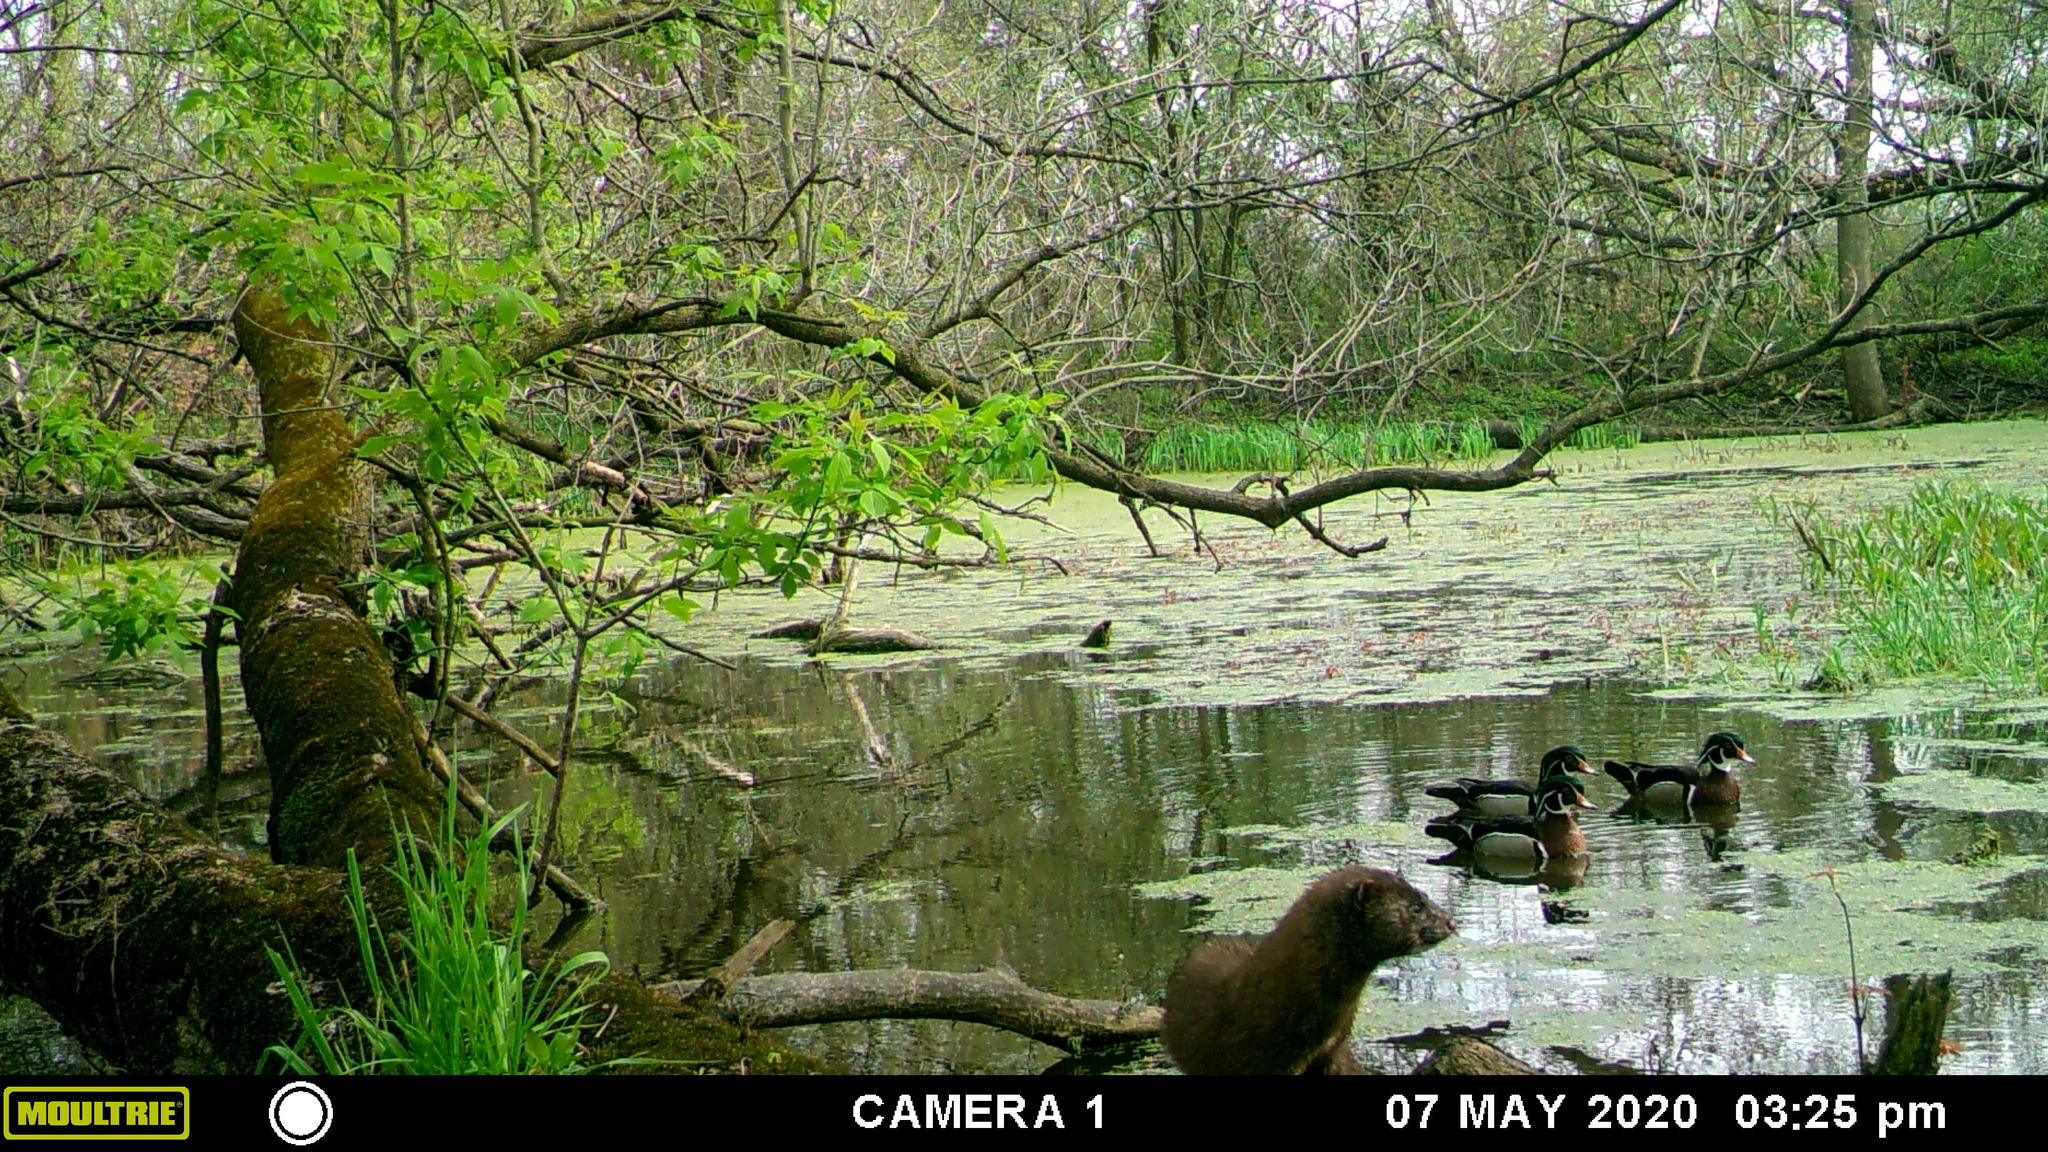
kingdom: Animalia
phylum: Chordata
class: Mammalia
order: Carnivora
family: Mustelidae
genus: Mustela
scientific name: Mustela
